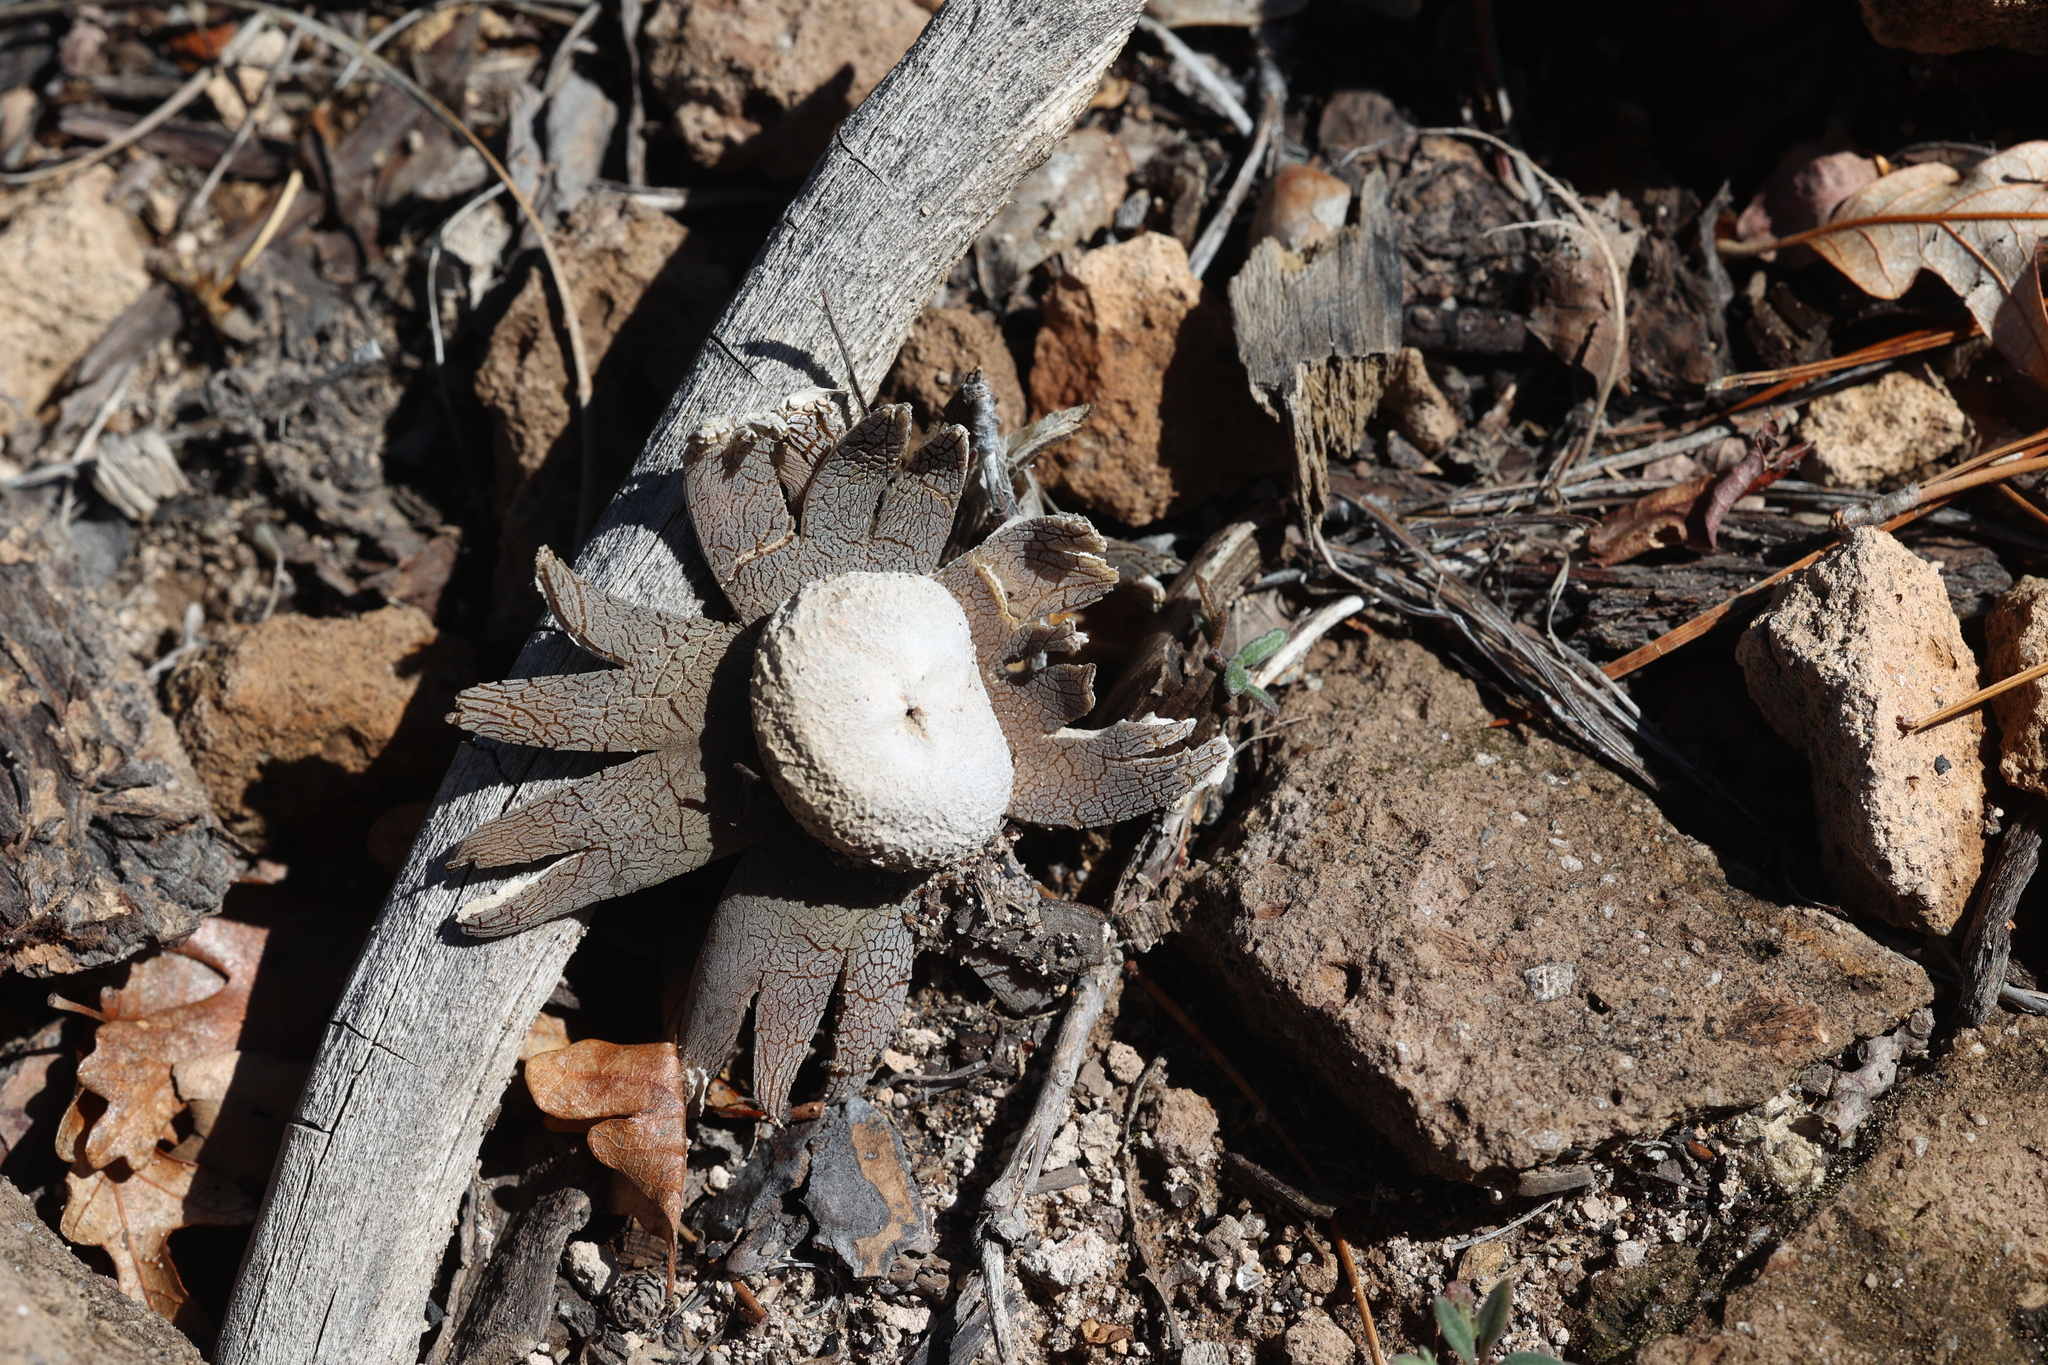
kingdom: Fungi
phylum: Basidiomycota
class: Agaricomycetes
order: Boletales
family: Diplocystidiaceae
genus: Astraeus
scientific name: Astraeus hygrometricus
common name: Barometer earthstar
